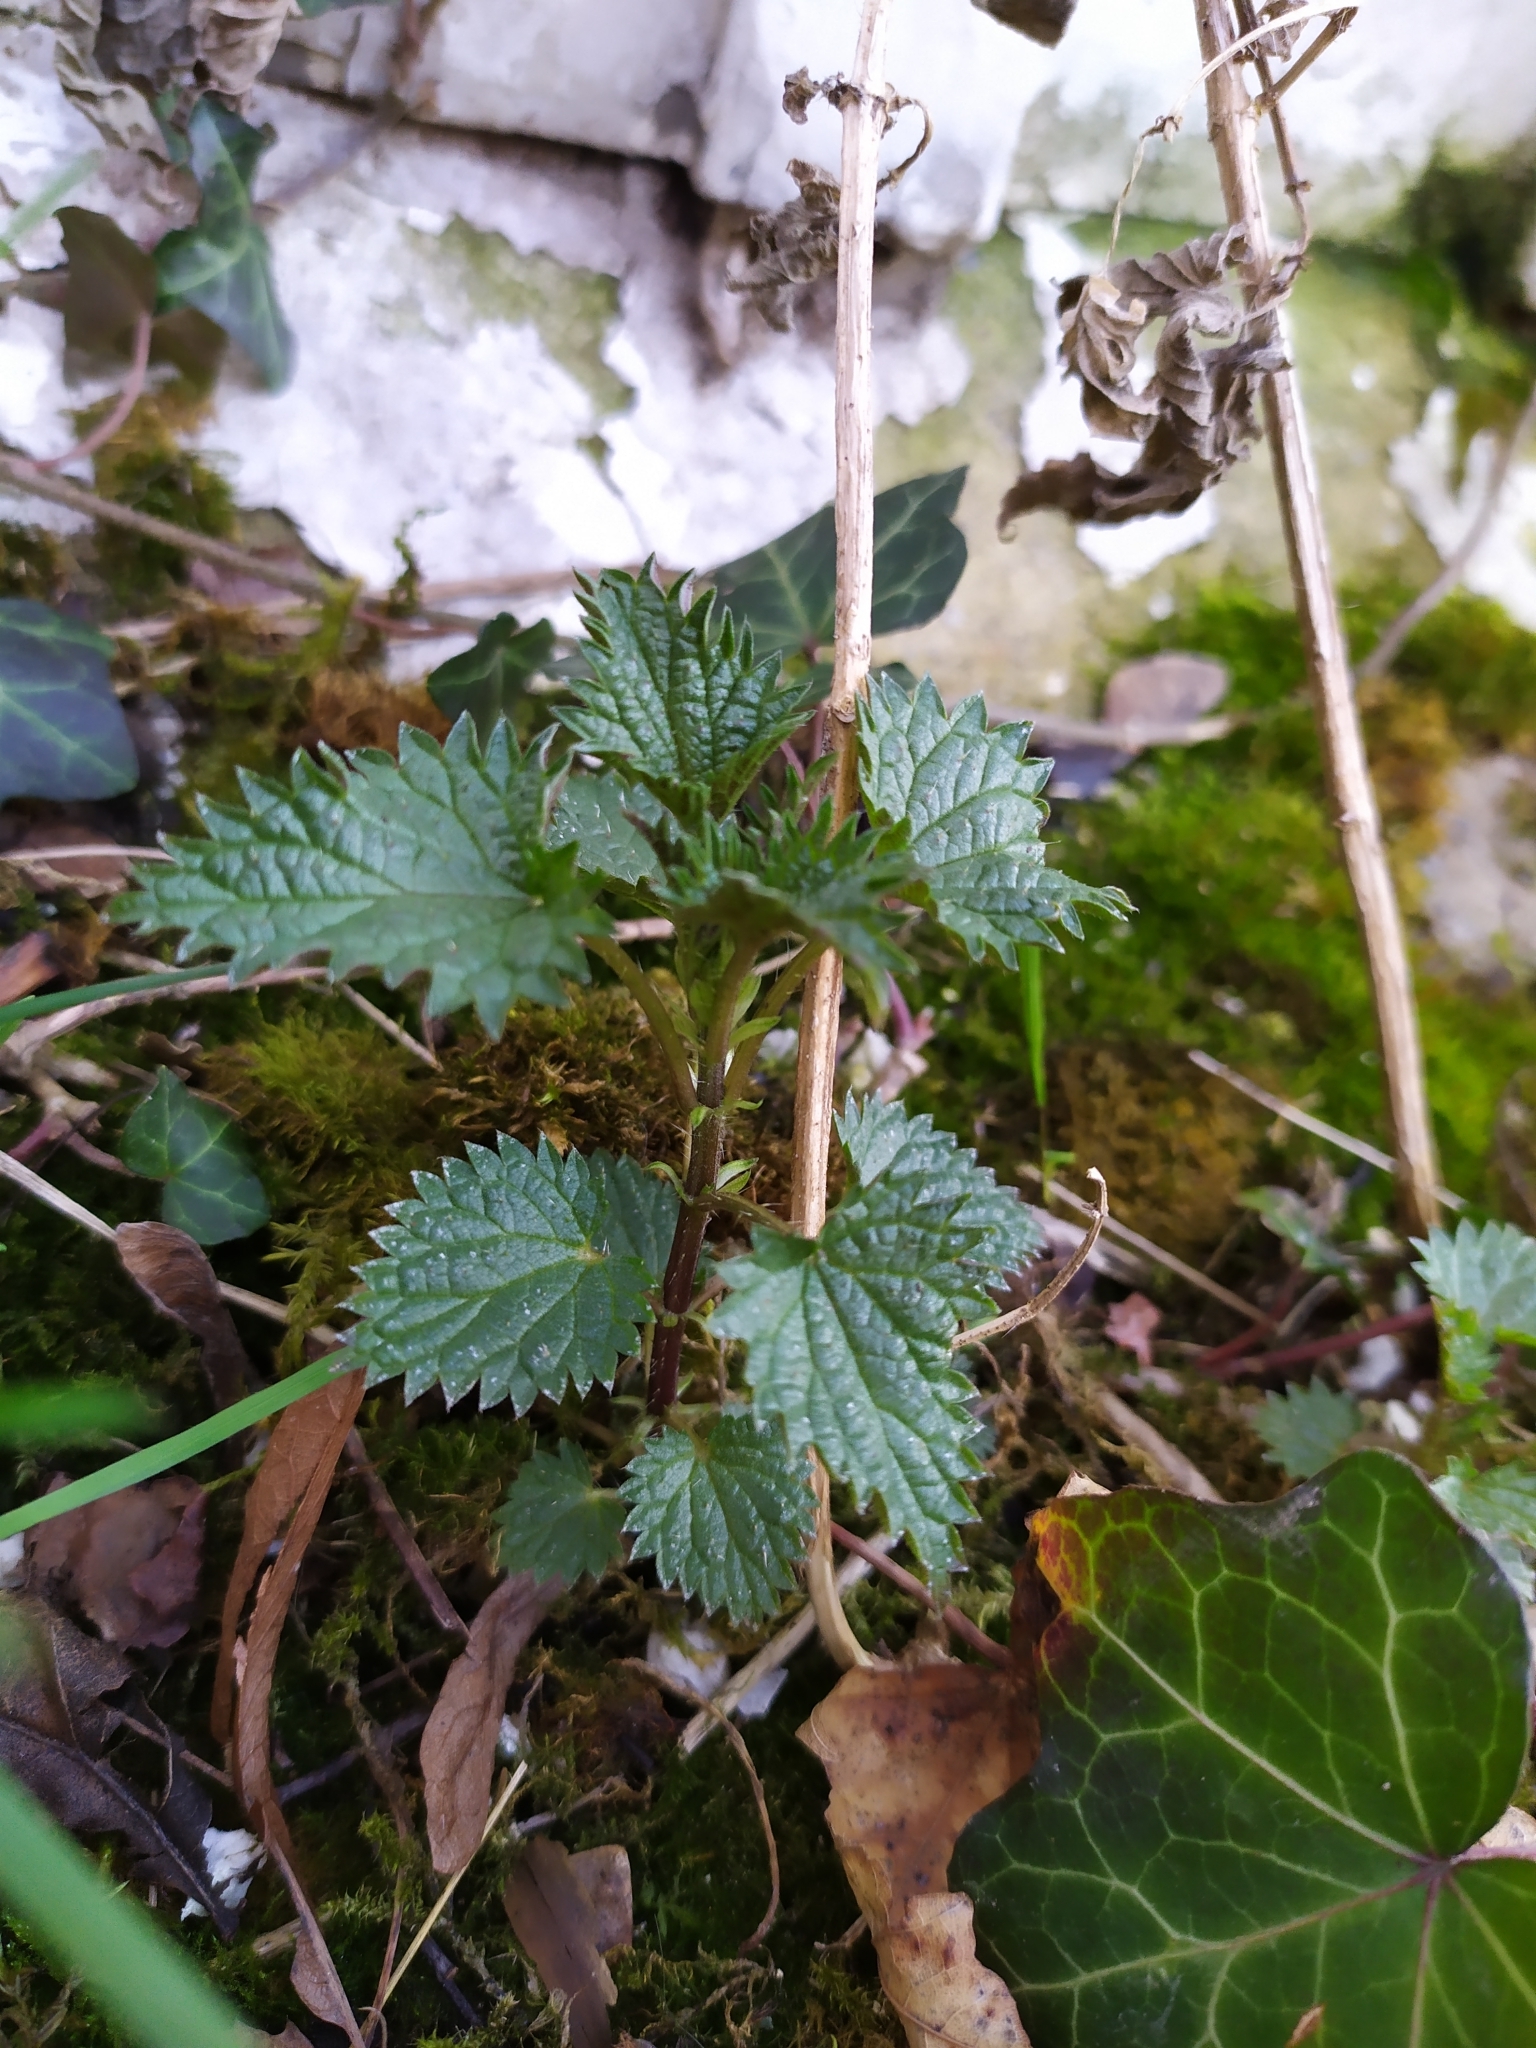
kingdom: Plantae
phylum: Tracheophyta
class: Magnoliopsida
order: Rosales
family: Urticaceae
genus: Urtica
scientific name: Urtica dioica
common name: Common nettle
